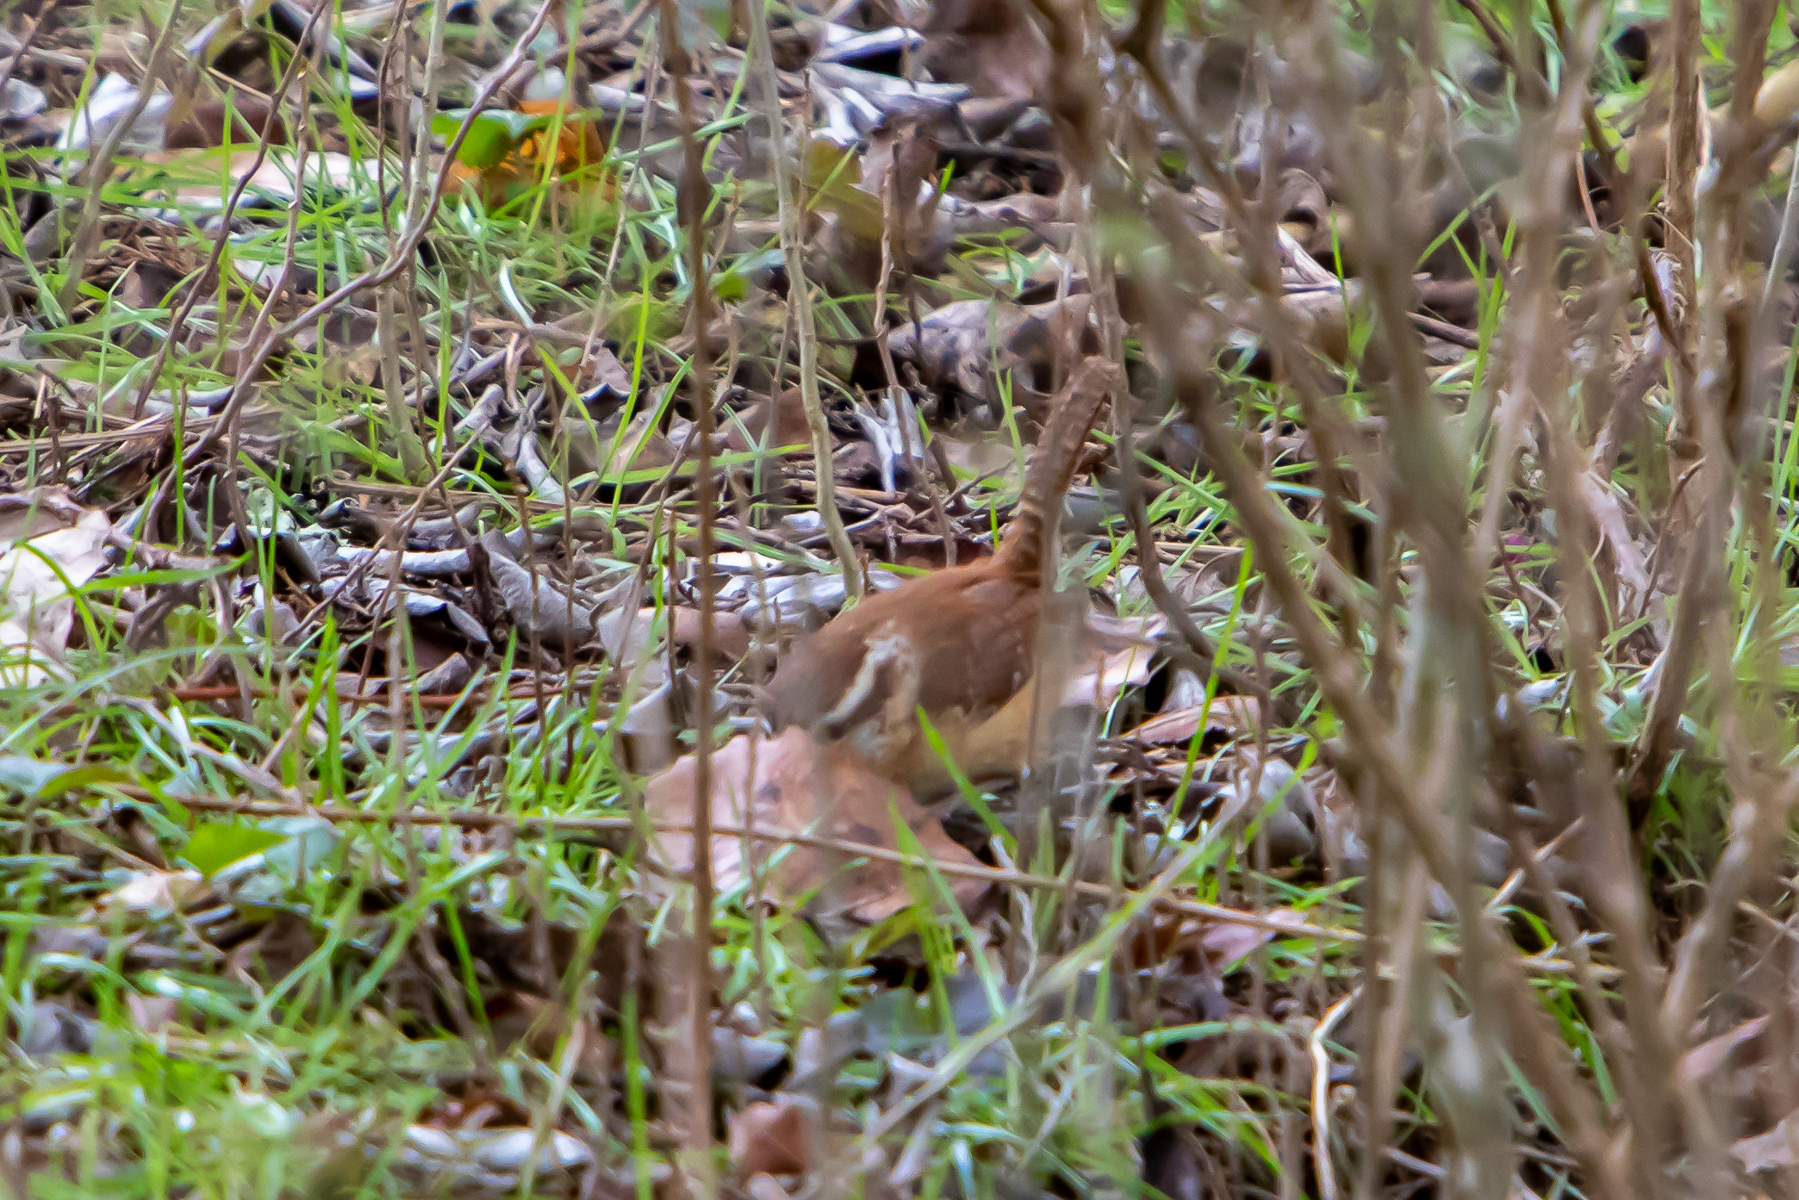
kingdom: Animalia
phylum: Chordata
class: Aves
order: Passeriformes
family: Troglodytidae
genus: Thryothorus
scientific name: Thryothorus ludovicianus
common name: Carolina wren
